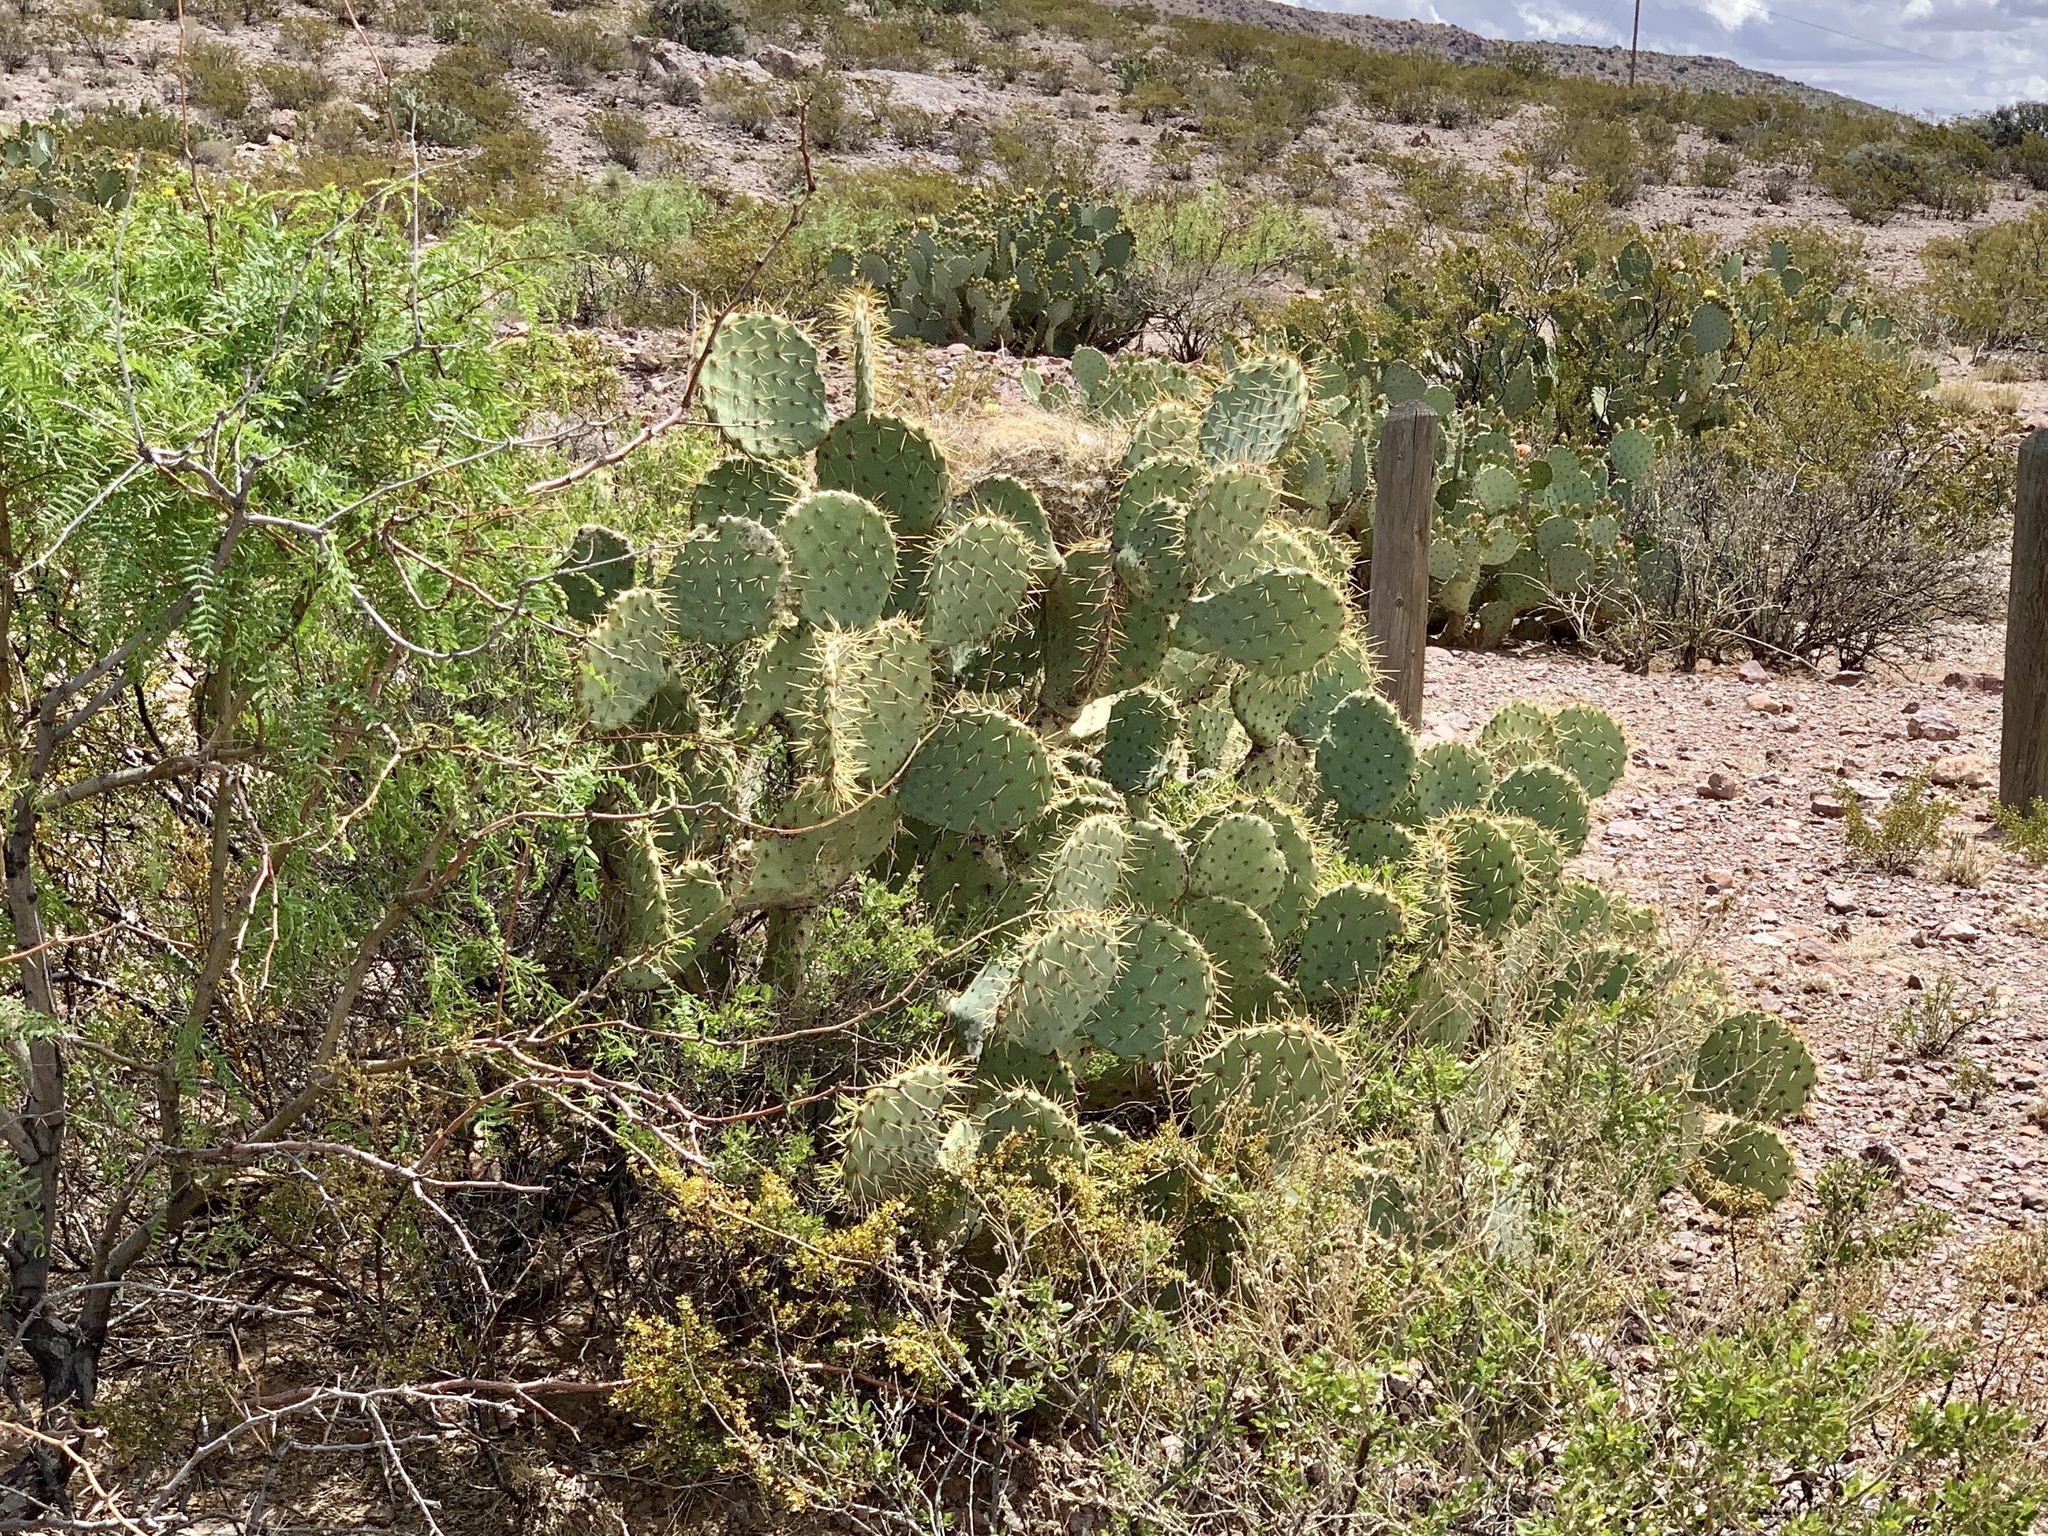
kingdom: Plantae
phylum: Tracheophyta
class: Magnoliopsida
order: Caryophyllales
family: Cactaceae
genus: Opuntia
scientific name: Opuntia engelmannii
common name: Cactus-apple
